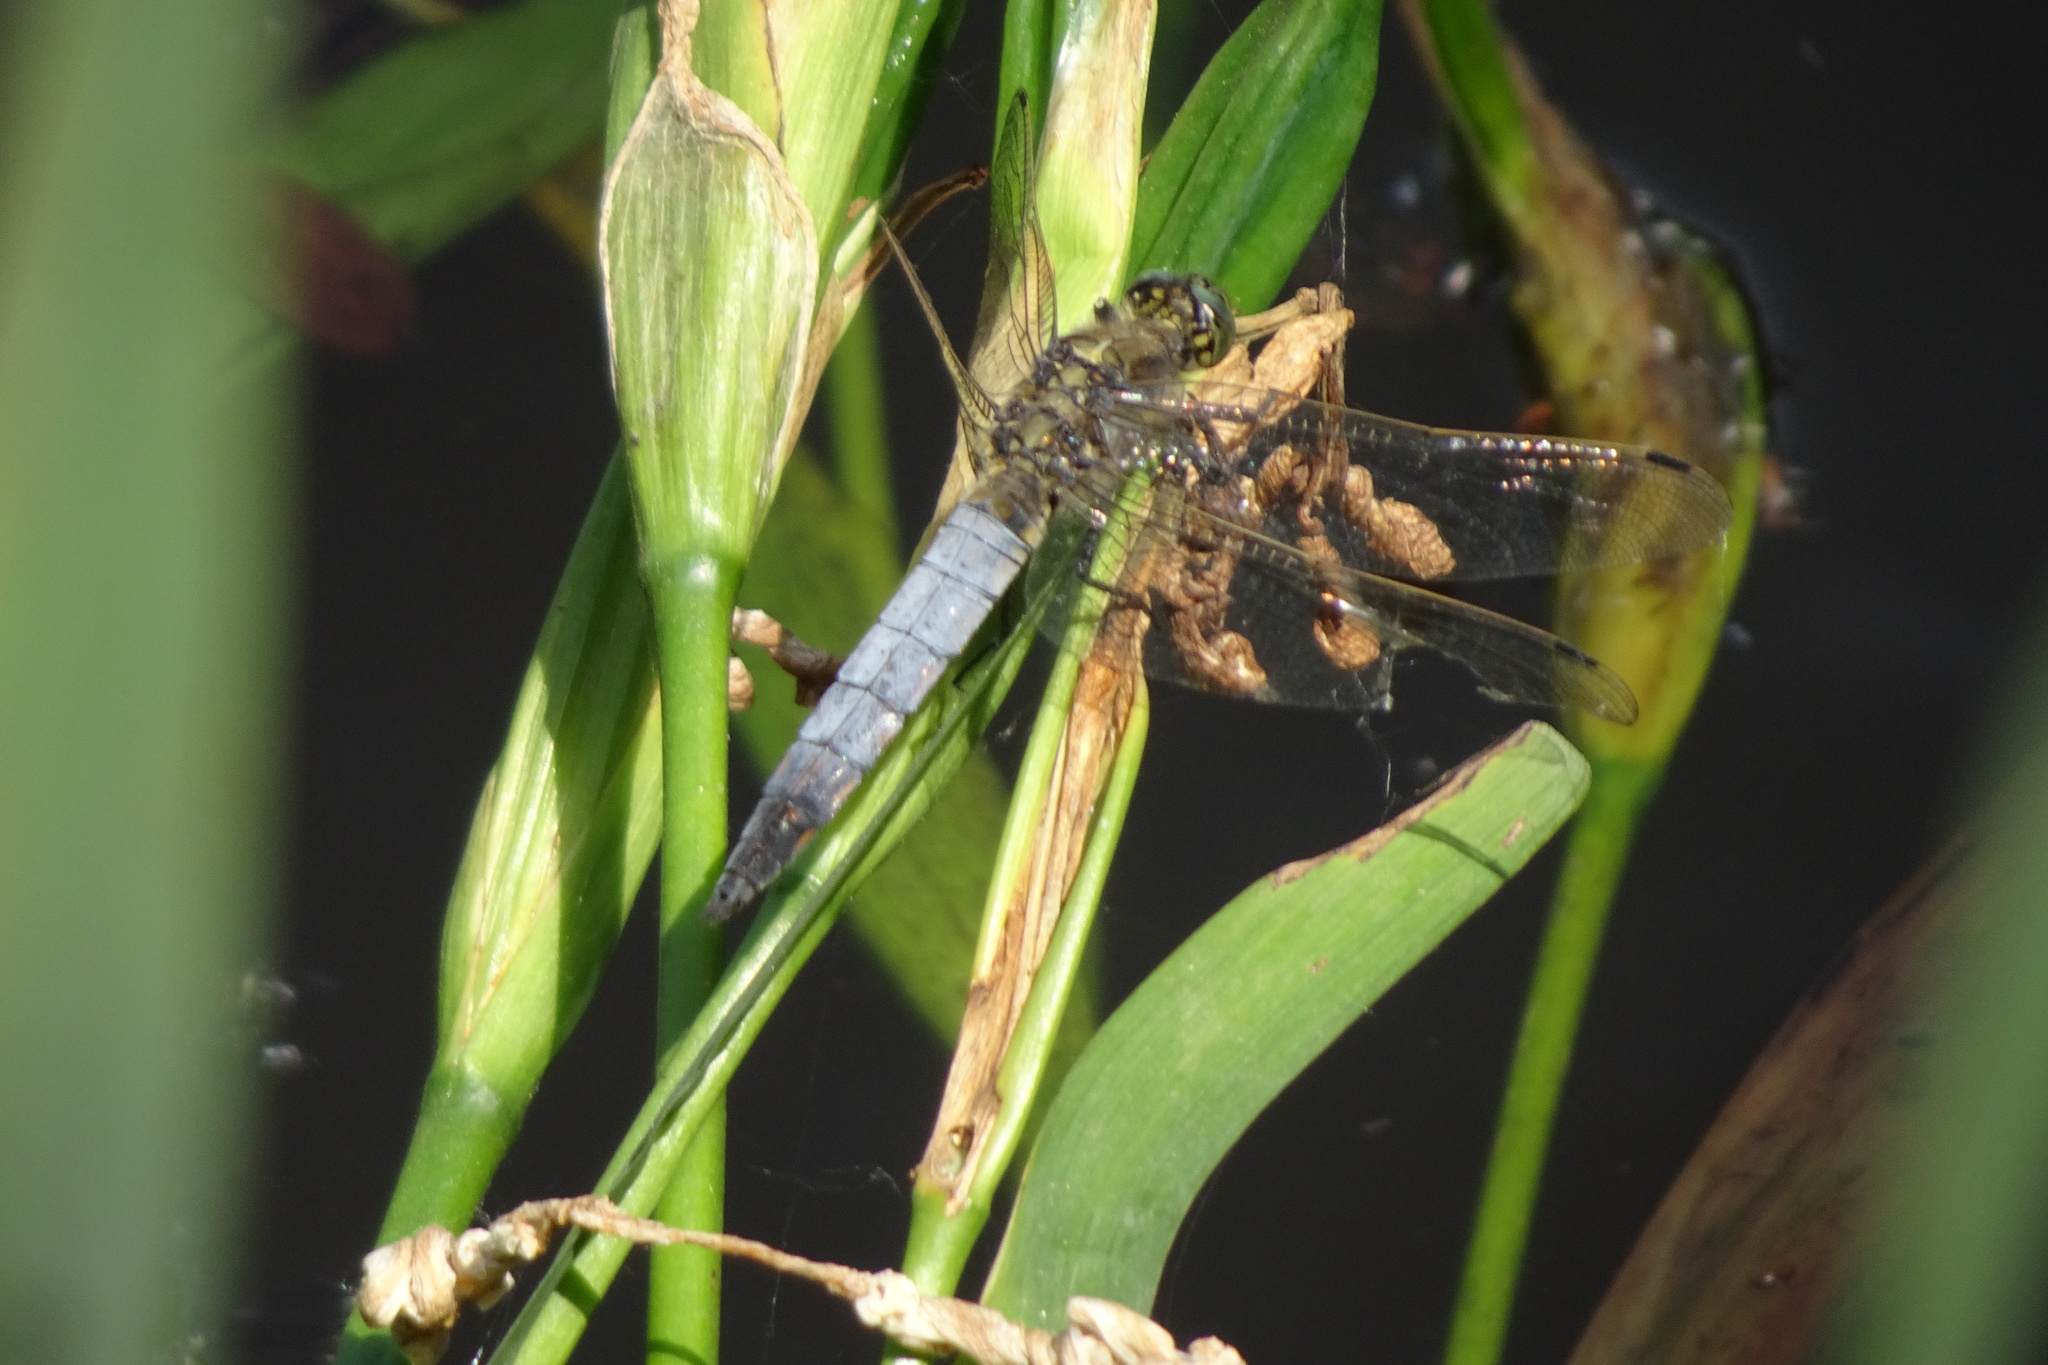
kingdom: Animalia
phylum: Arthropoda
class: Insecta
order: Odonata
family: Libellulidae
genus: Orthetrum
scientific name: Orthetrum cancellatum
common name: Black-tailed skimmer
